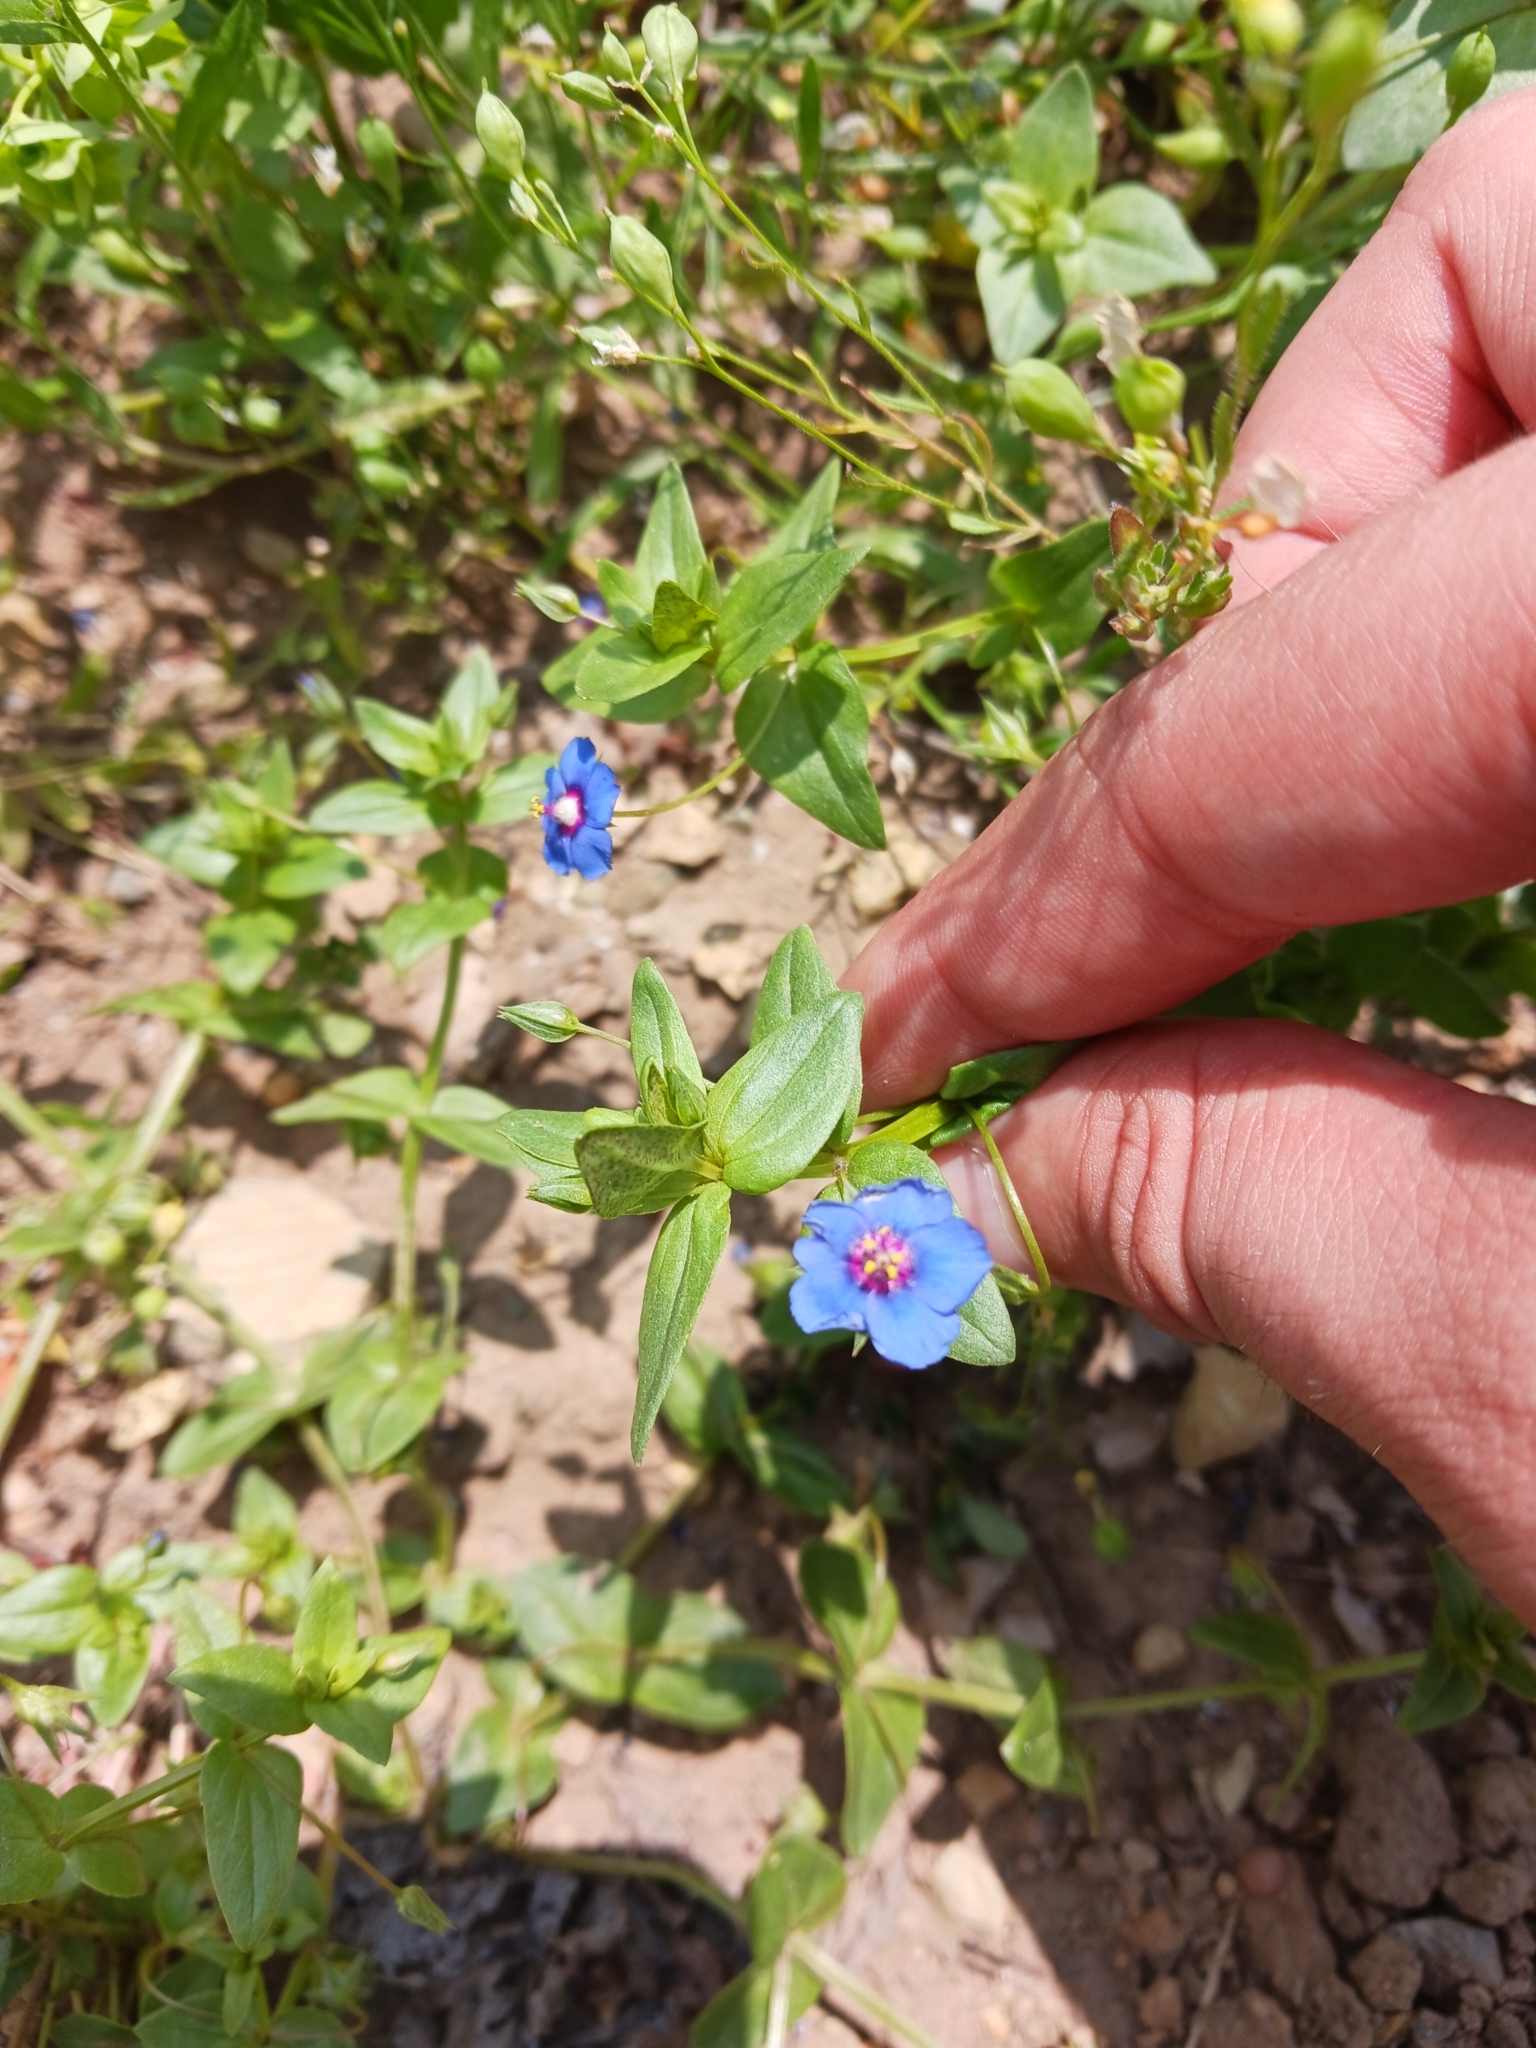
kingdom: Plantae
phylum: Tracheophyta
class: Magnoliopsida
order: Ericales
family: Primulaceae
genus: Lysimachia
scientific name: Lysimachia foemina
